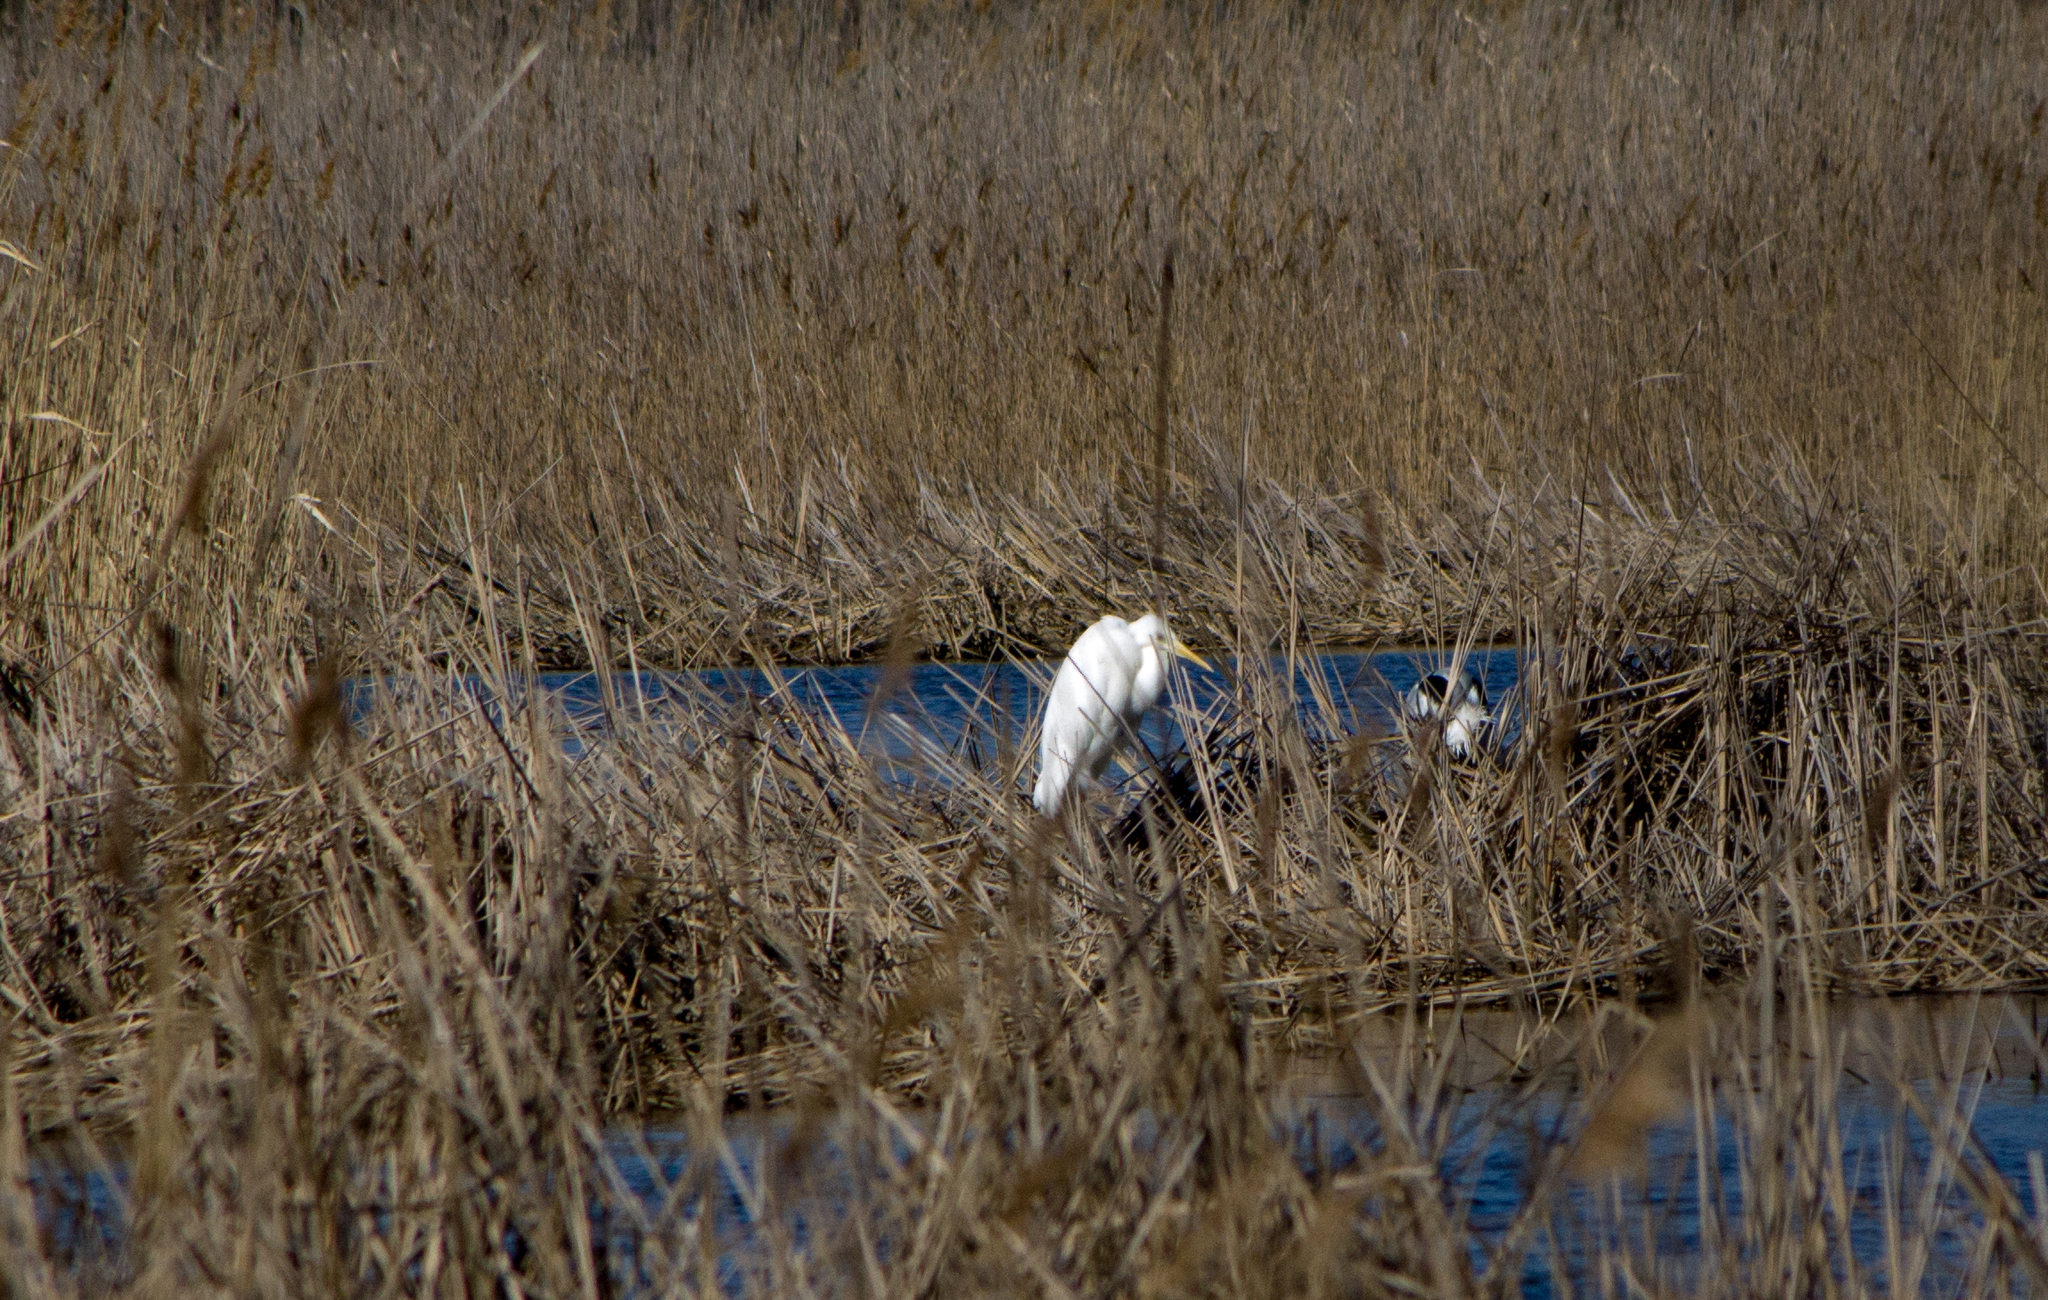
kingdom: Animalia
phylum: Chordata
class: Aves
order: Pelecaniformes
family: Ardeidae
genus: Ardea
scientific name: Ardea alba
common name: Great egret
